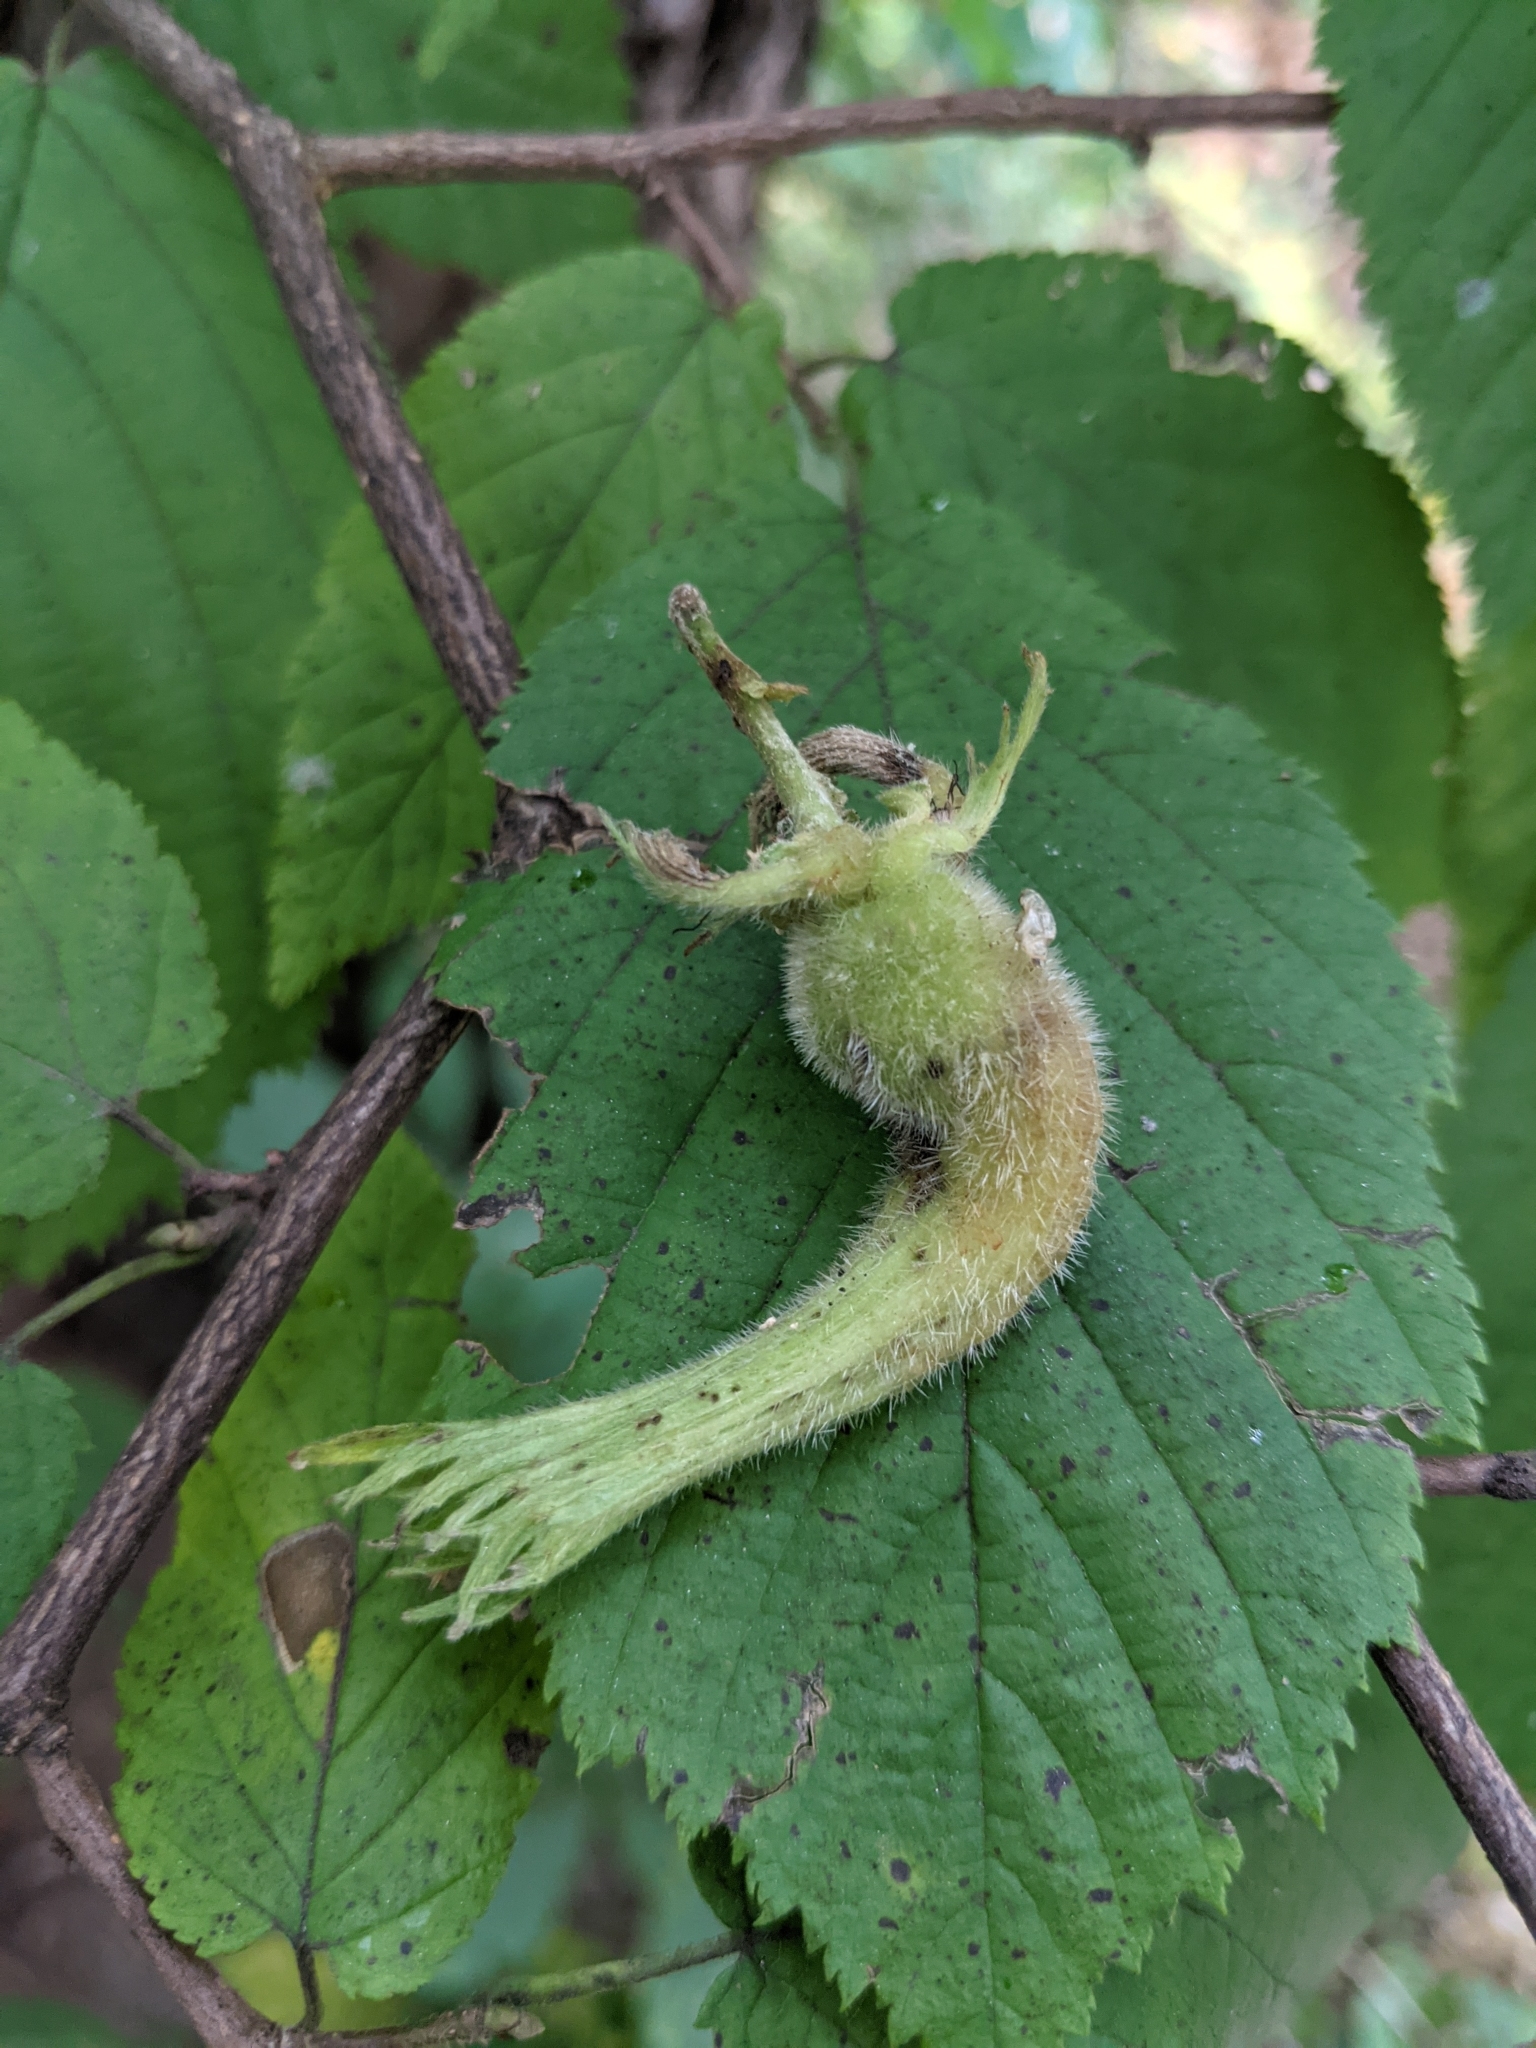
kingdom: Plantae
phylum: Tracheophyta
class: Magnoliopsida
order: Fagales
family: Betulaceae
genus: Corylus
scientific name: Corylus cornuta
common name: Beaked hazel
